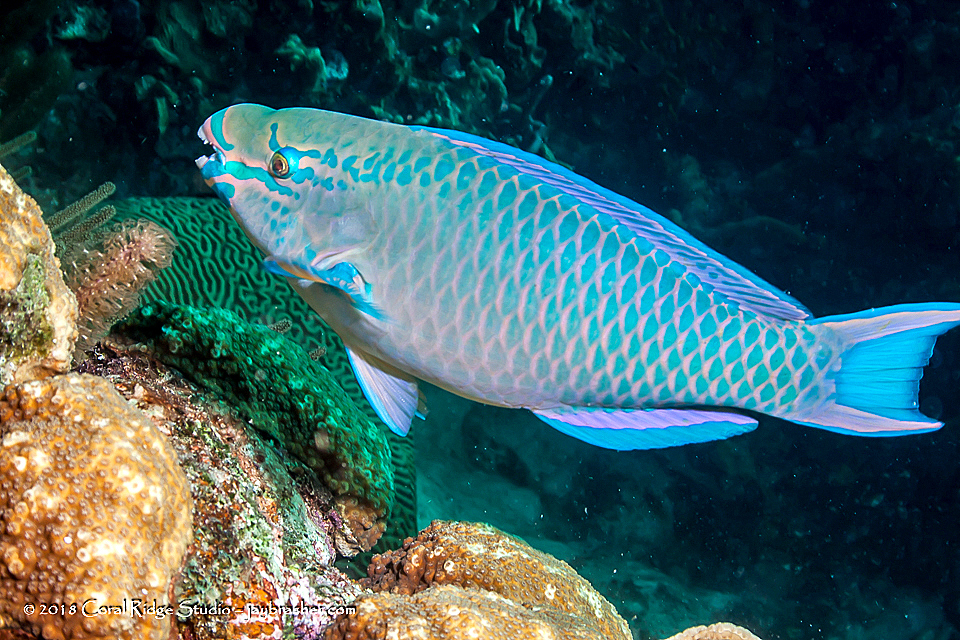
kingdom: Animalia
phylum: Chordata
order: Perciformes
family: Scaridae
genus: Scarus
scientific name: Scarus vetula
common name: Queen parrotfish
